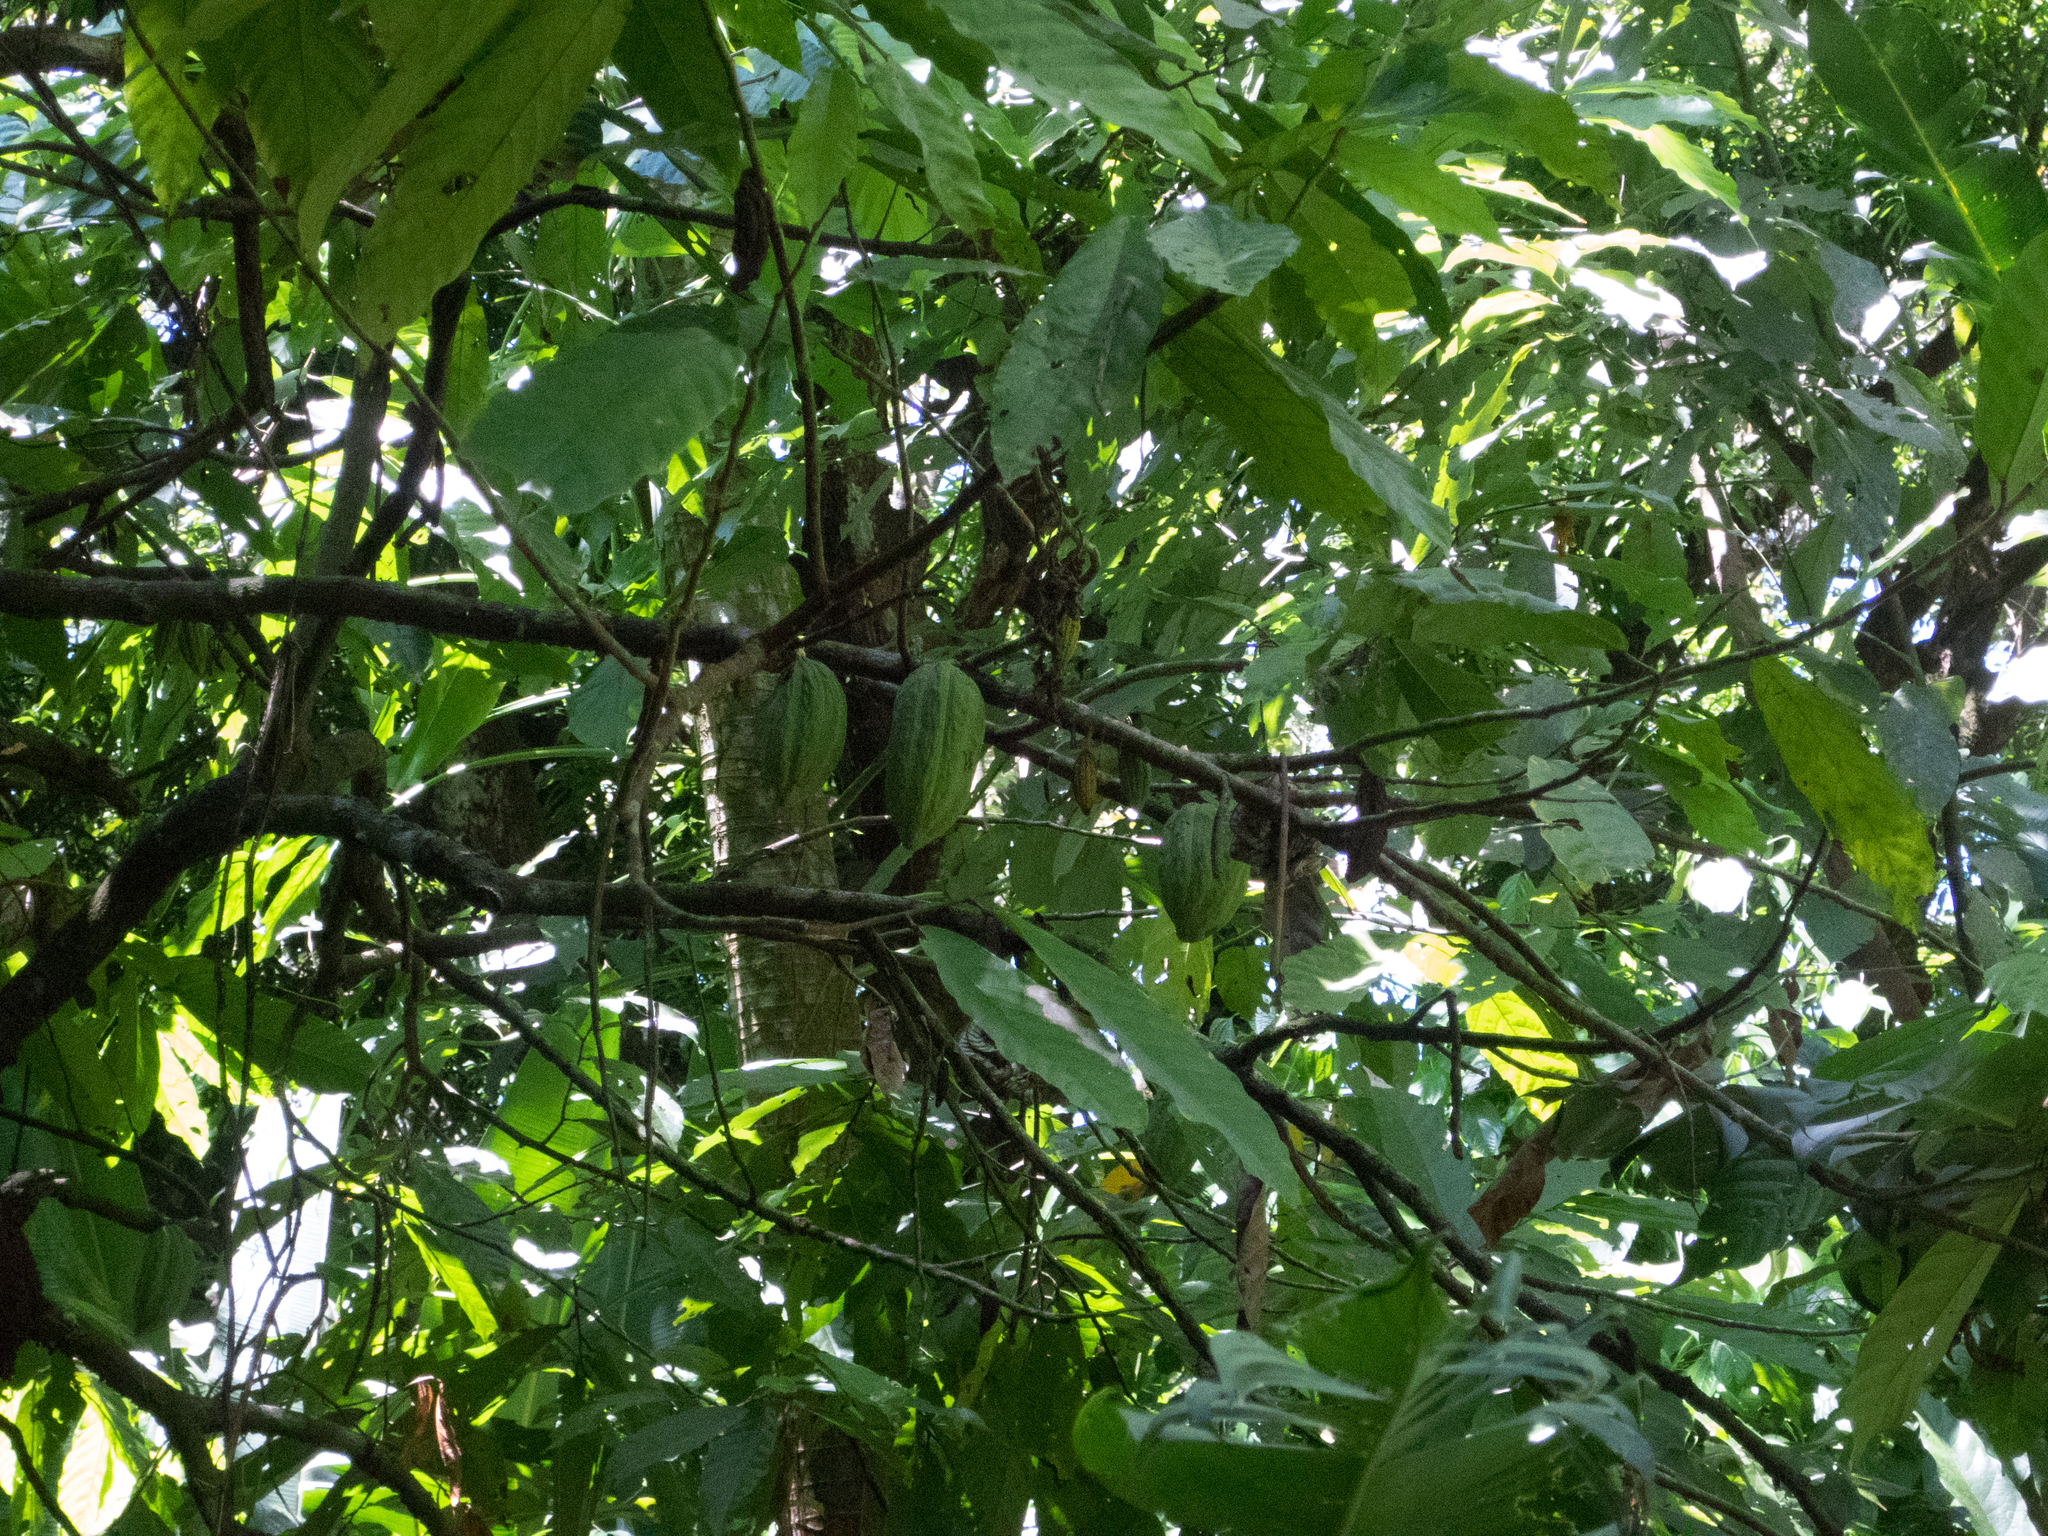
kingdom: Plantae
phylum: Tracheophyta
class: Magnoliopsida
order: Malvales
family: Malvaceae
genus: Theobroma
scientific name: Theobroma cacao
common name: Cocoa
